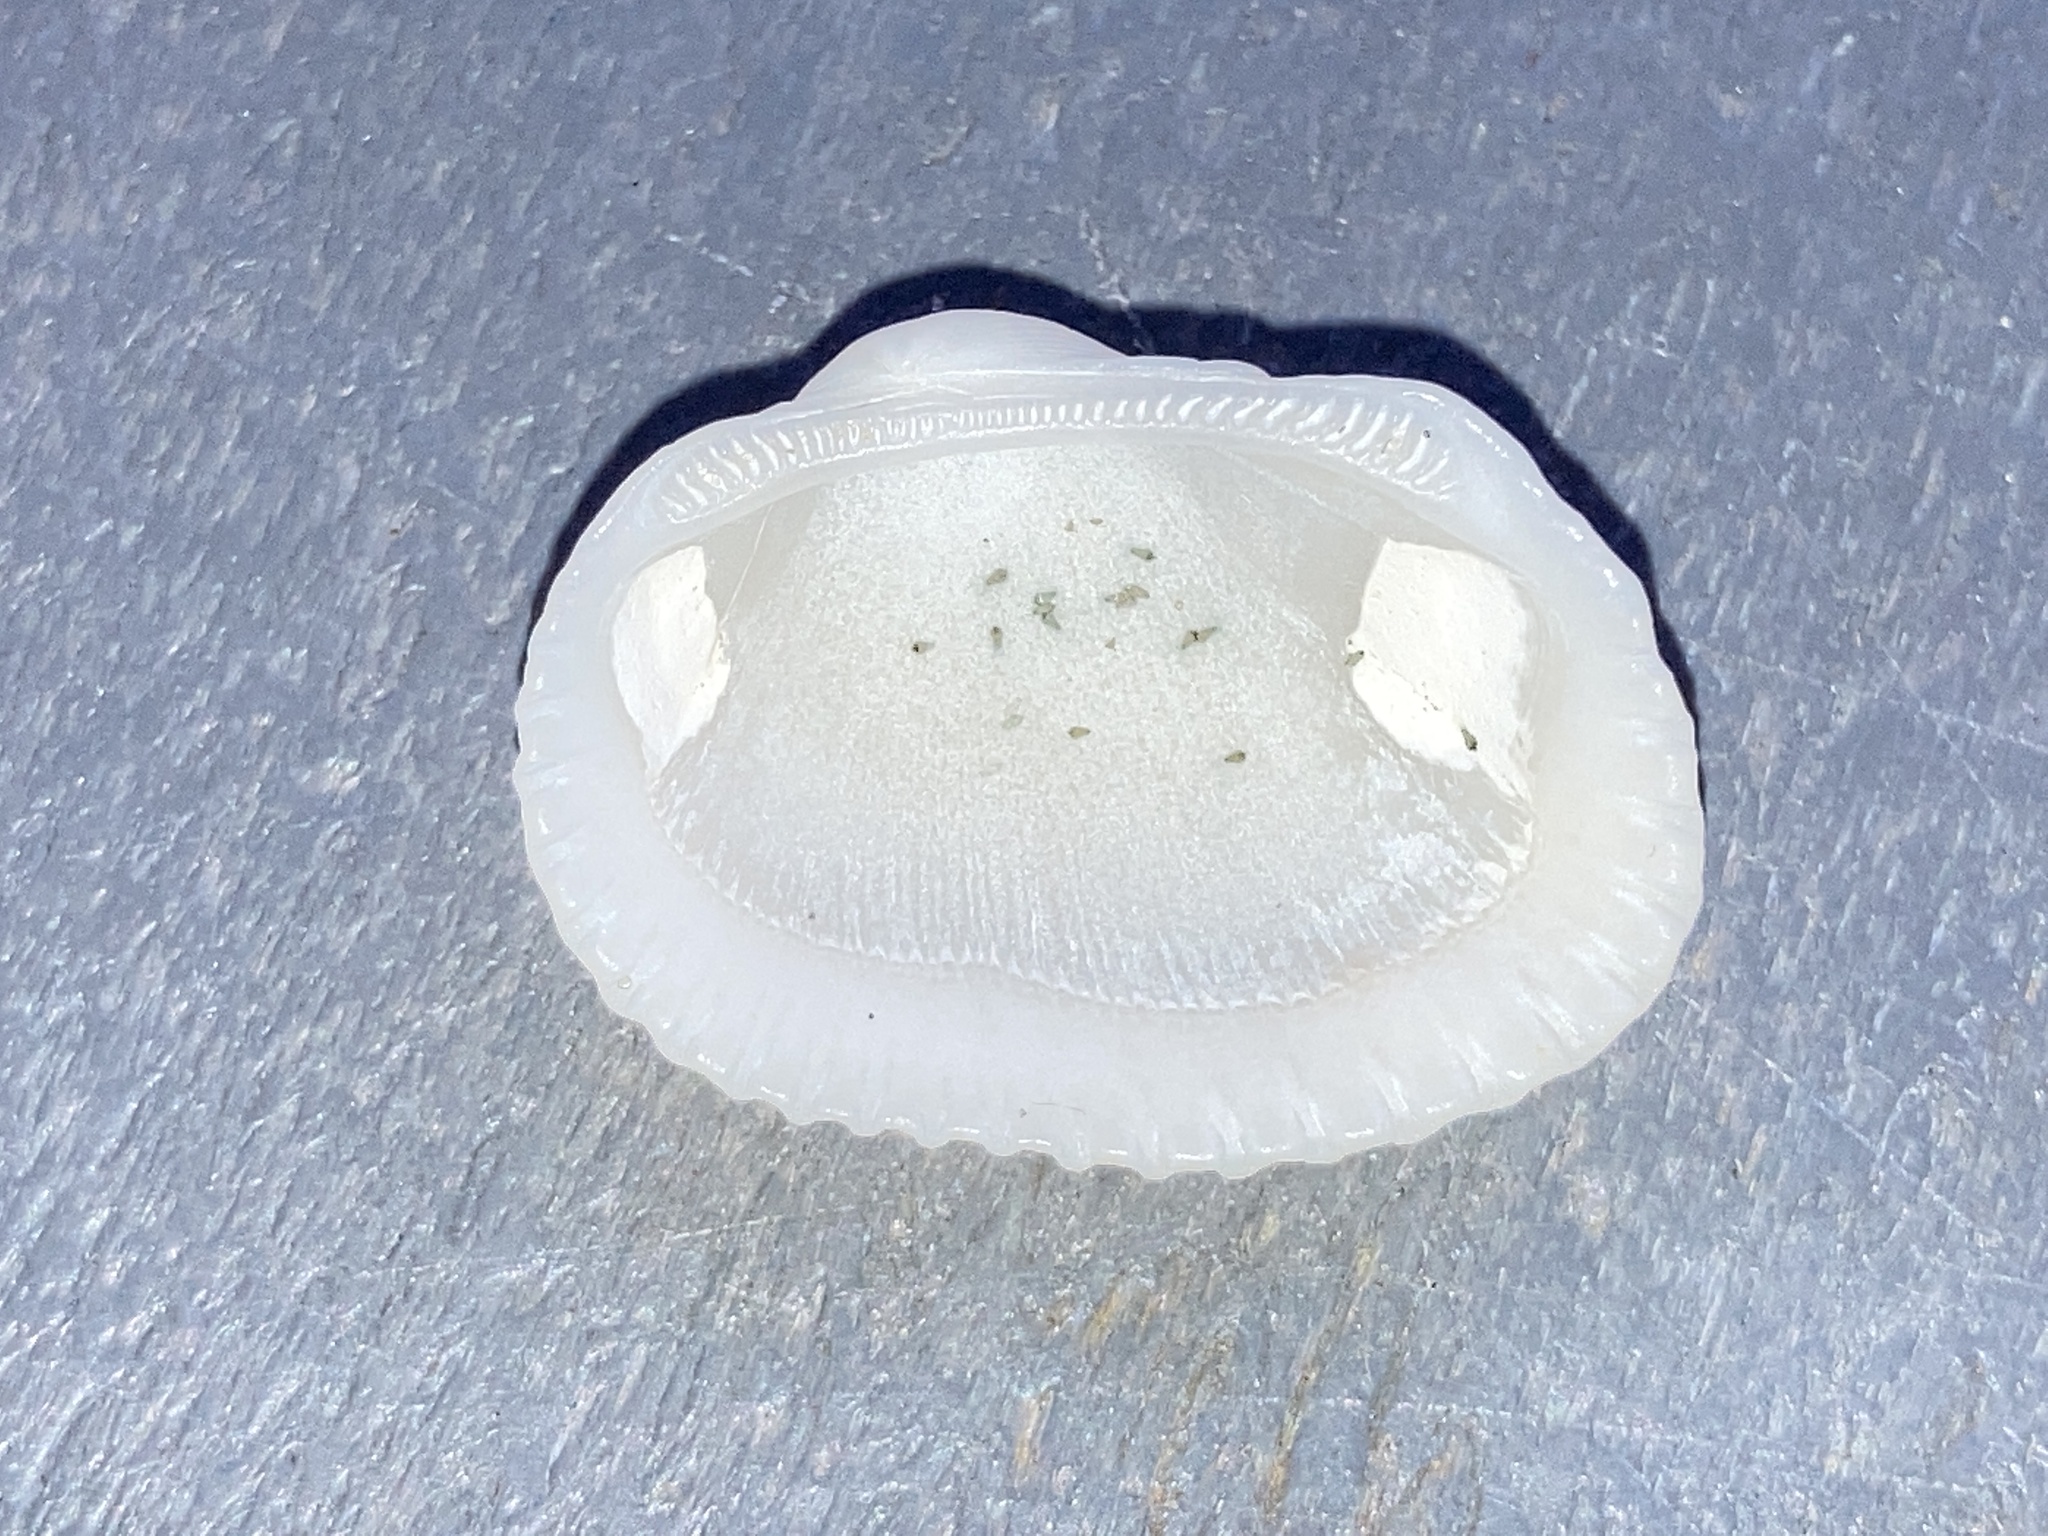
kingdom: Animalia
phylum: Mollusca
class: Bivalvia
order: Arcida
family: Arcidae
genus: Anadara
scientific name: Anadara transversa
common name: Transverse ark
